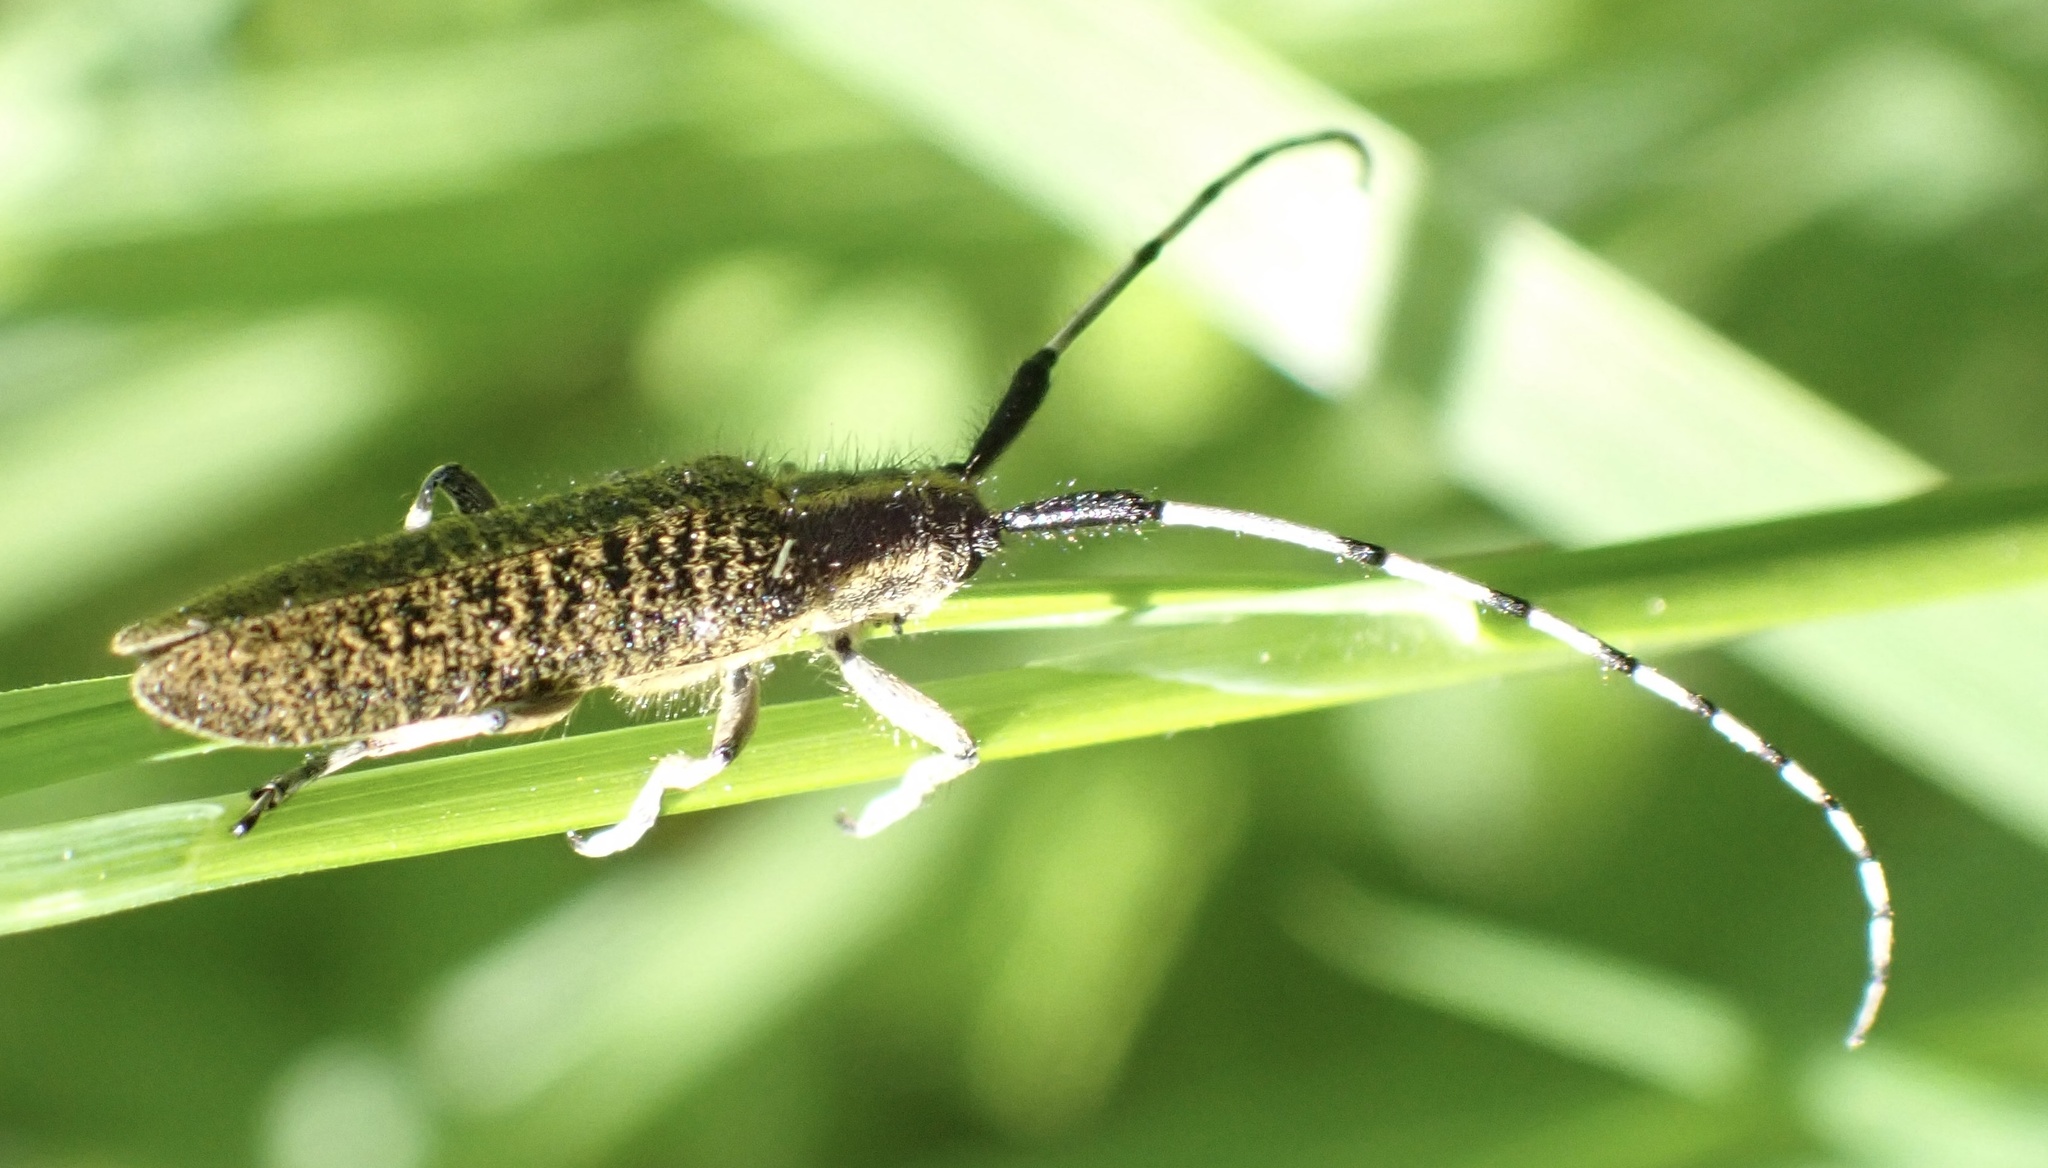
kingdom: Animalia
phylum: Arthropoda
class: Insecta
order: Coleoptera
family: Cerambycidae
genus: Agapanthia
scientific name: Agapanthia villosoviridescens
